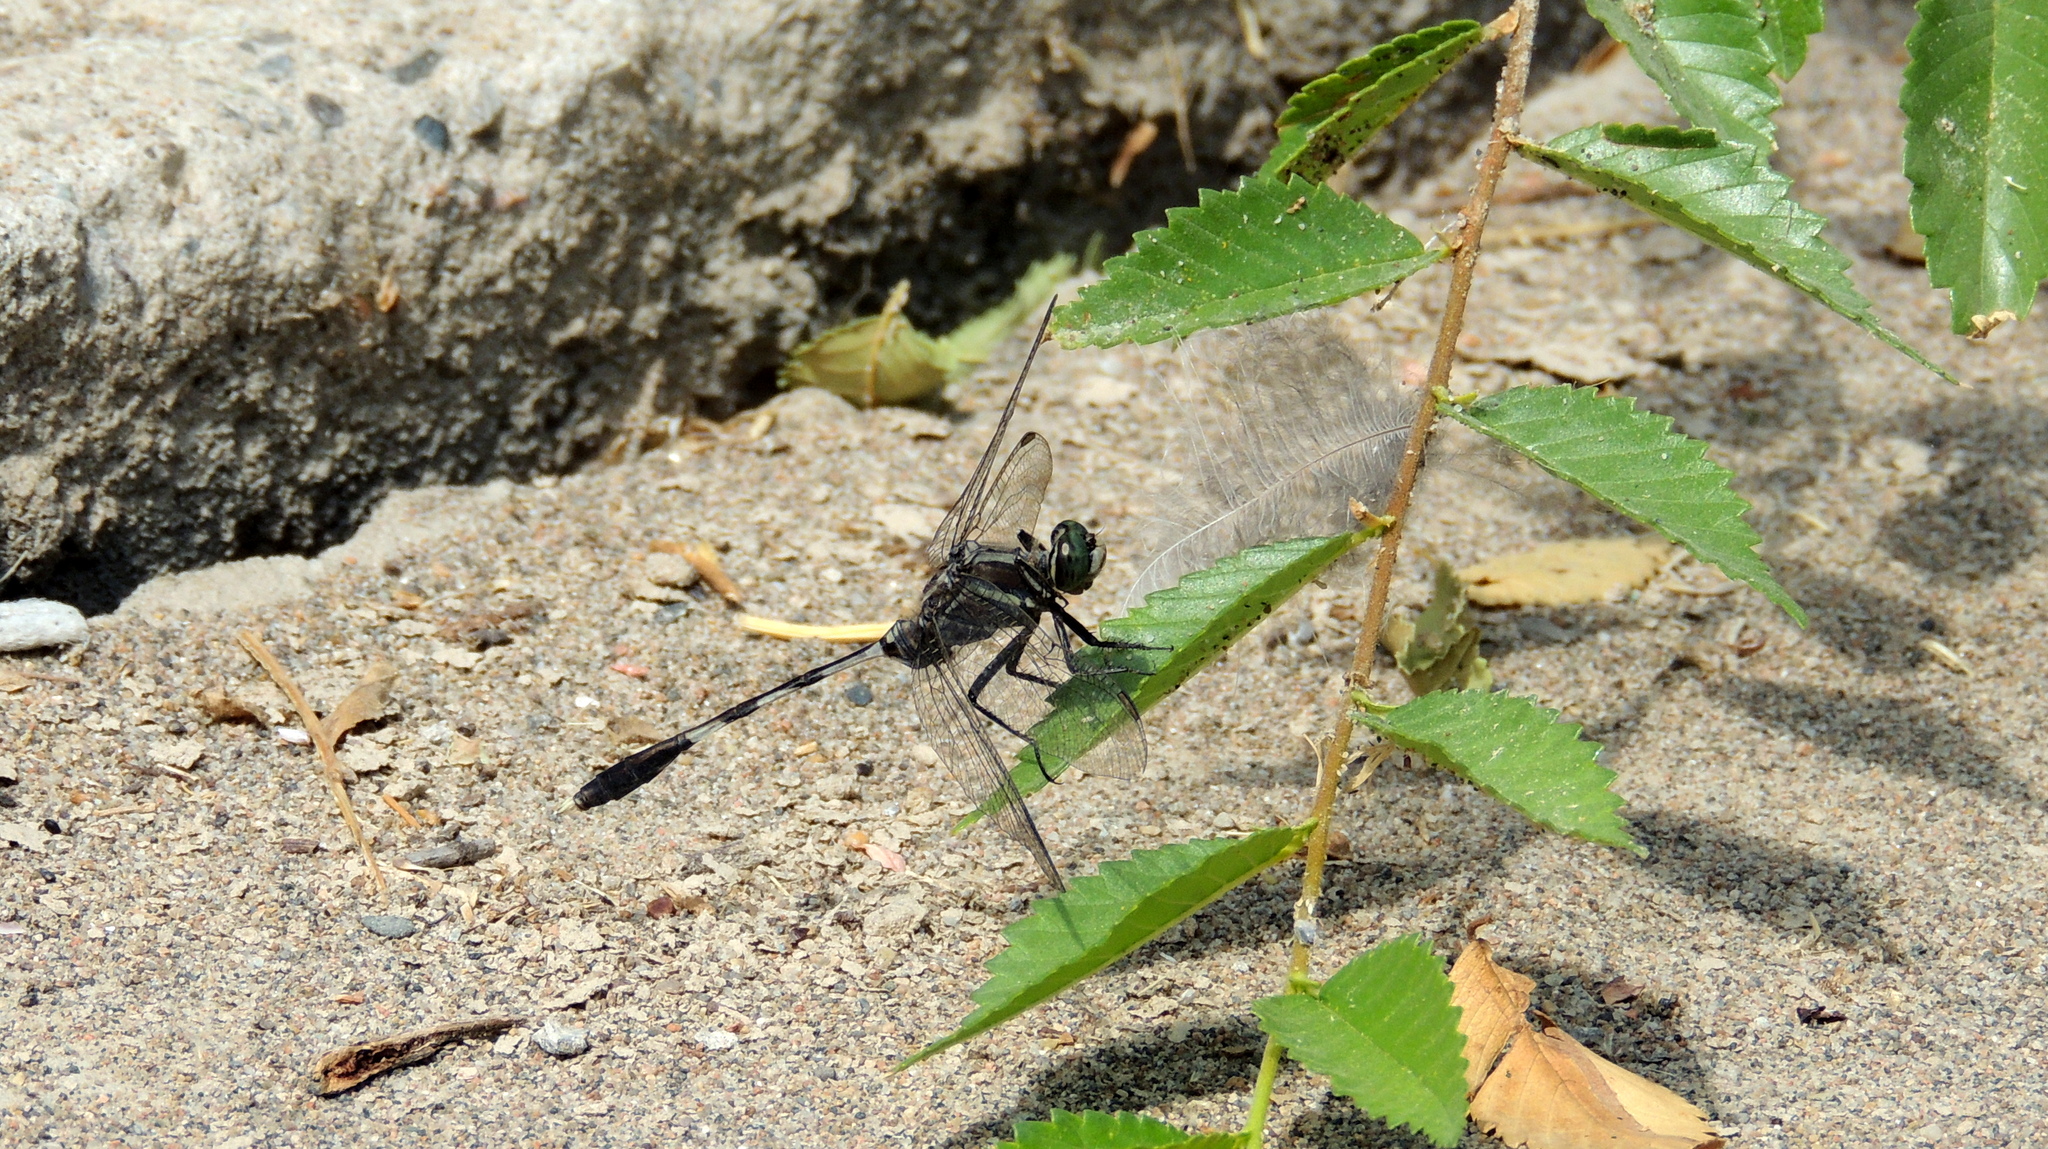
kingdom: Animalia
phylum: Arthropoda
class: Insecta
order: Odonata
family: Libellulidae
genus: Orthetrum
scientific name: Orthetrum sabina
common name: Slender skimmer
